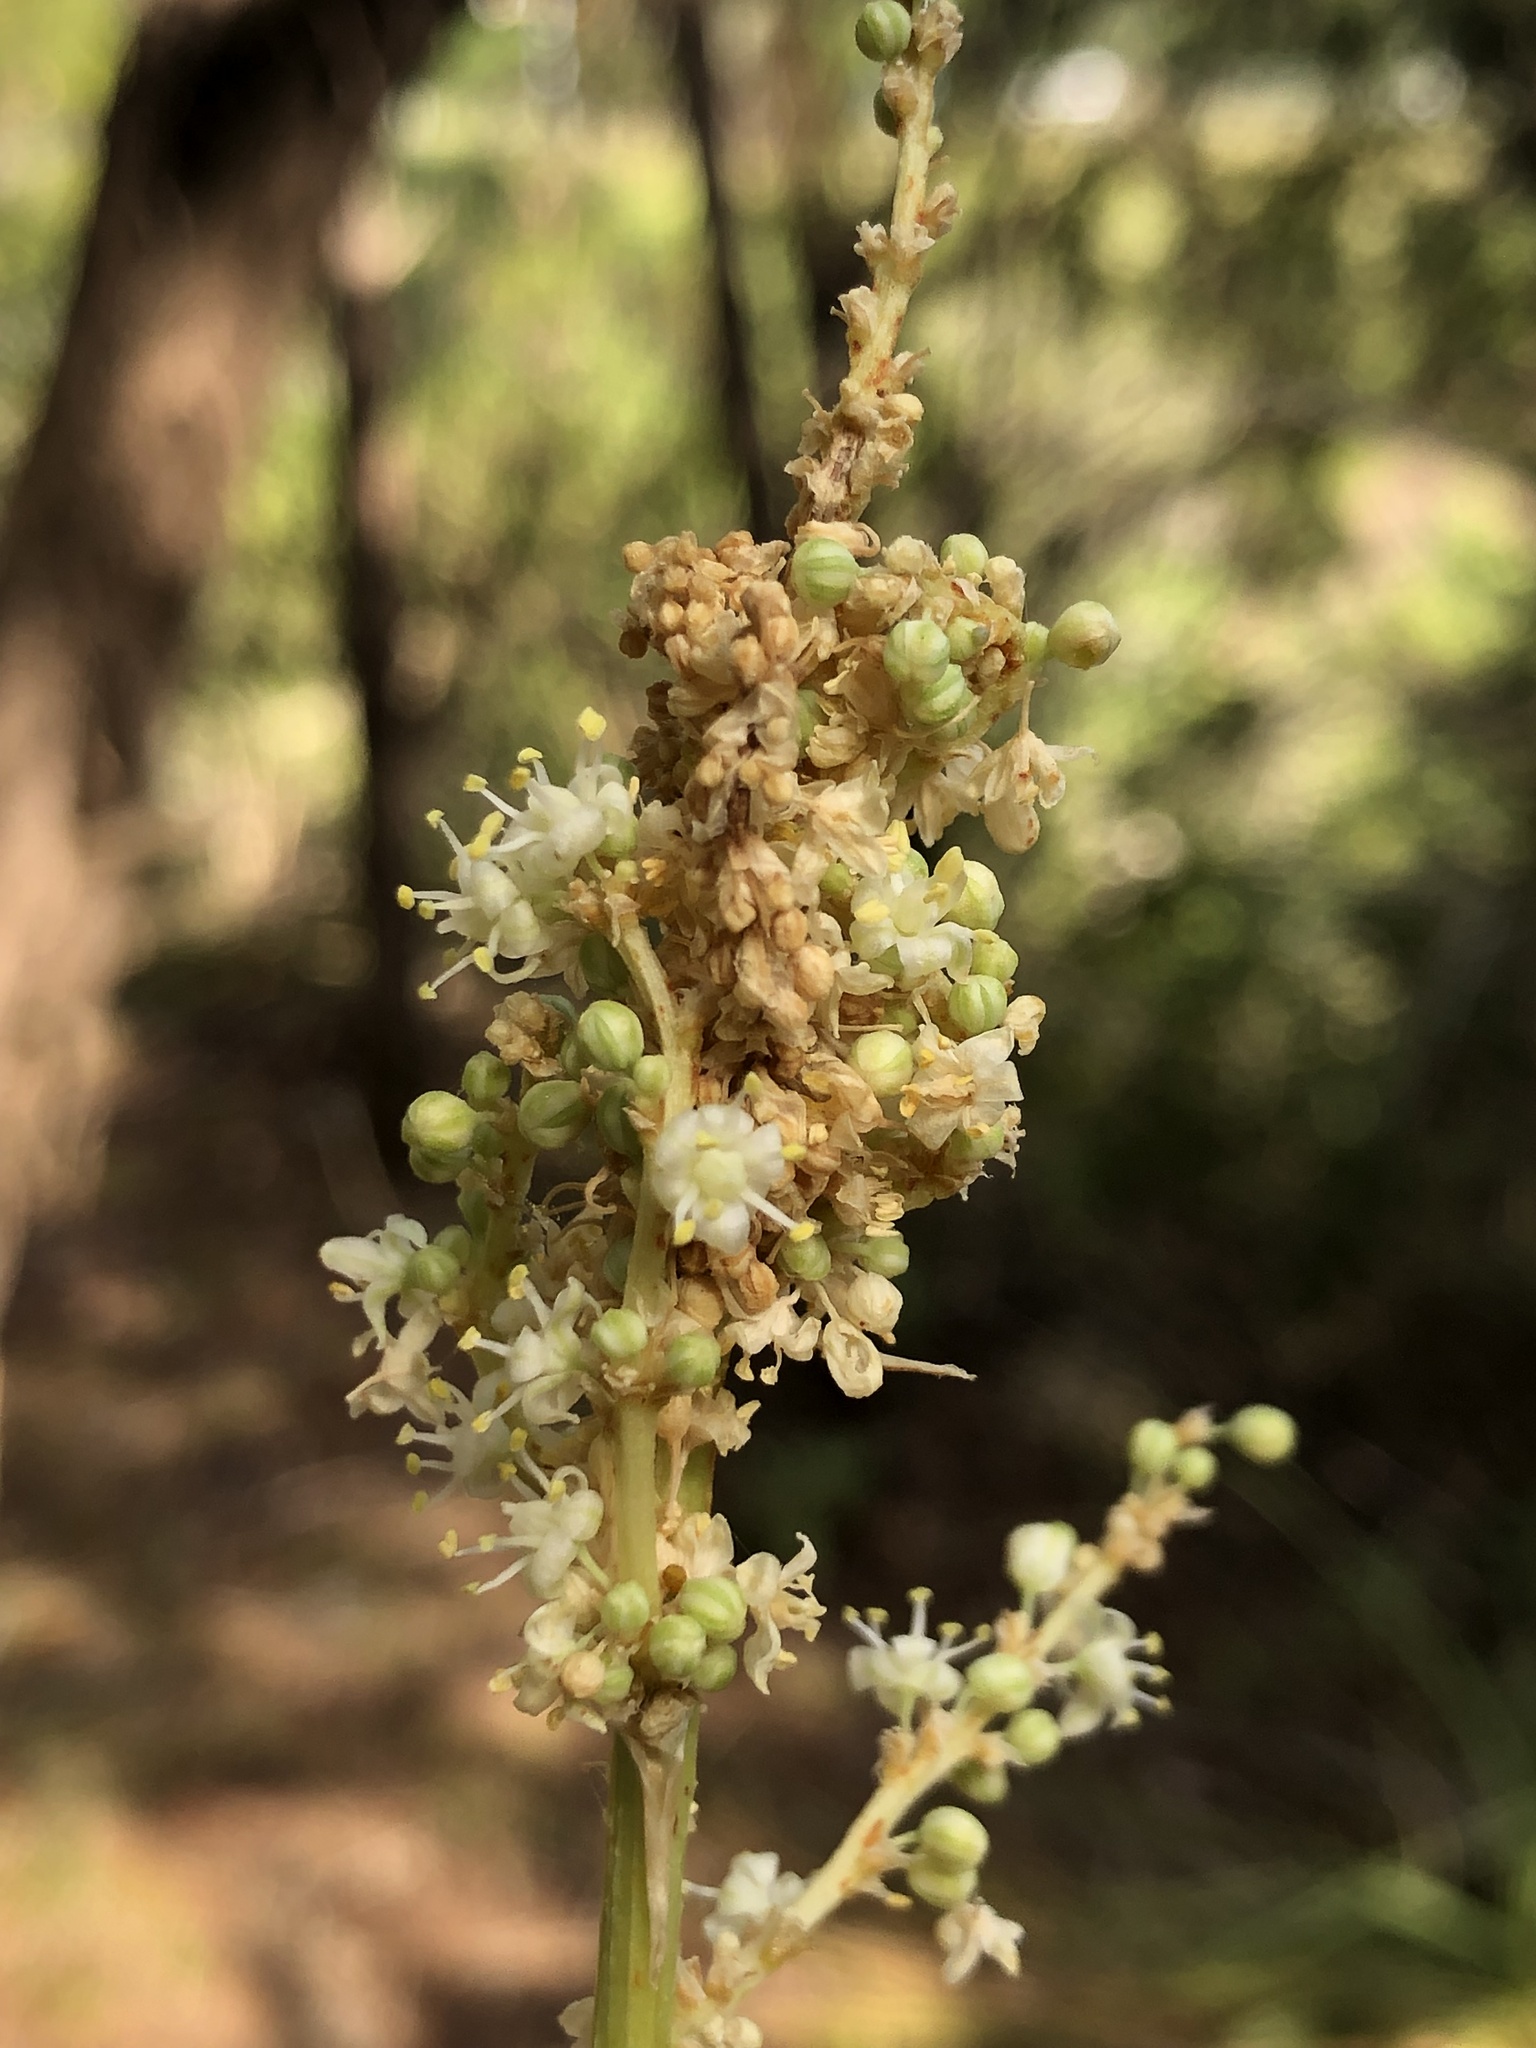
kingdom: Plantae
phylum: Tracheophyta
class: Liliopsida
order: Asparagales
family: Asparagaceae
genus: Nolina
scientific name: Nolina lindheimeriana
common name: Lindheimer's bear-grass
